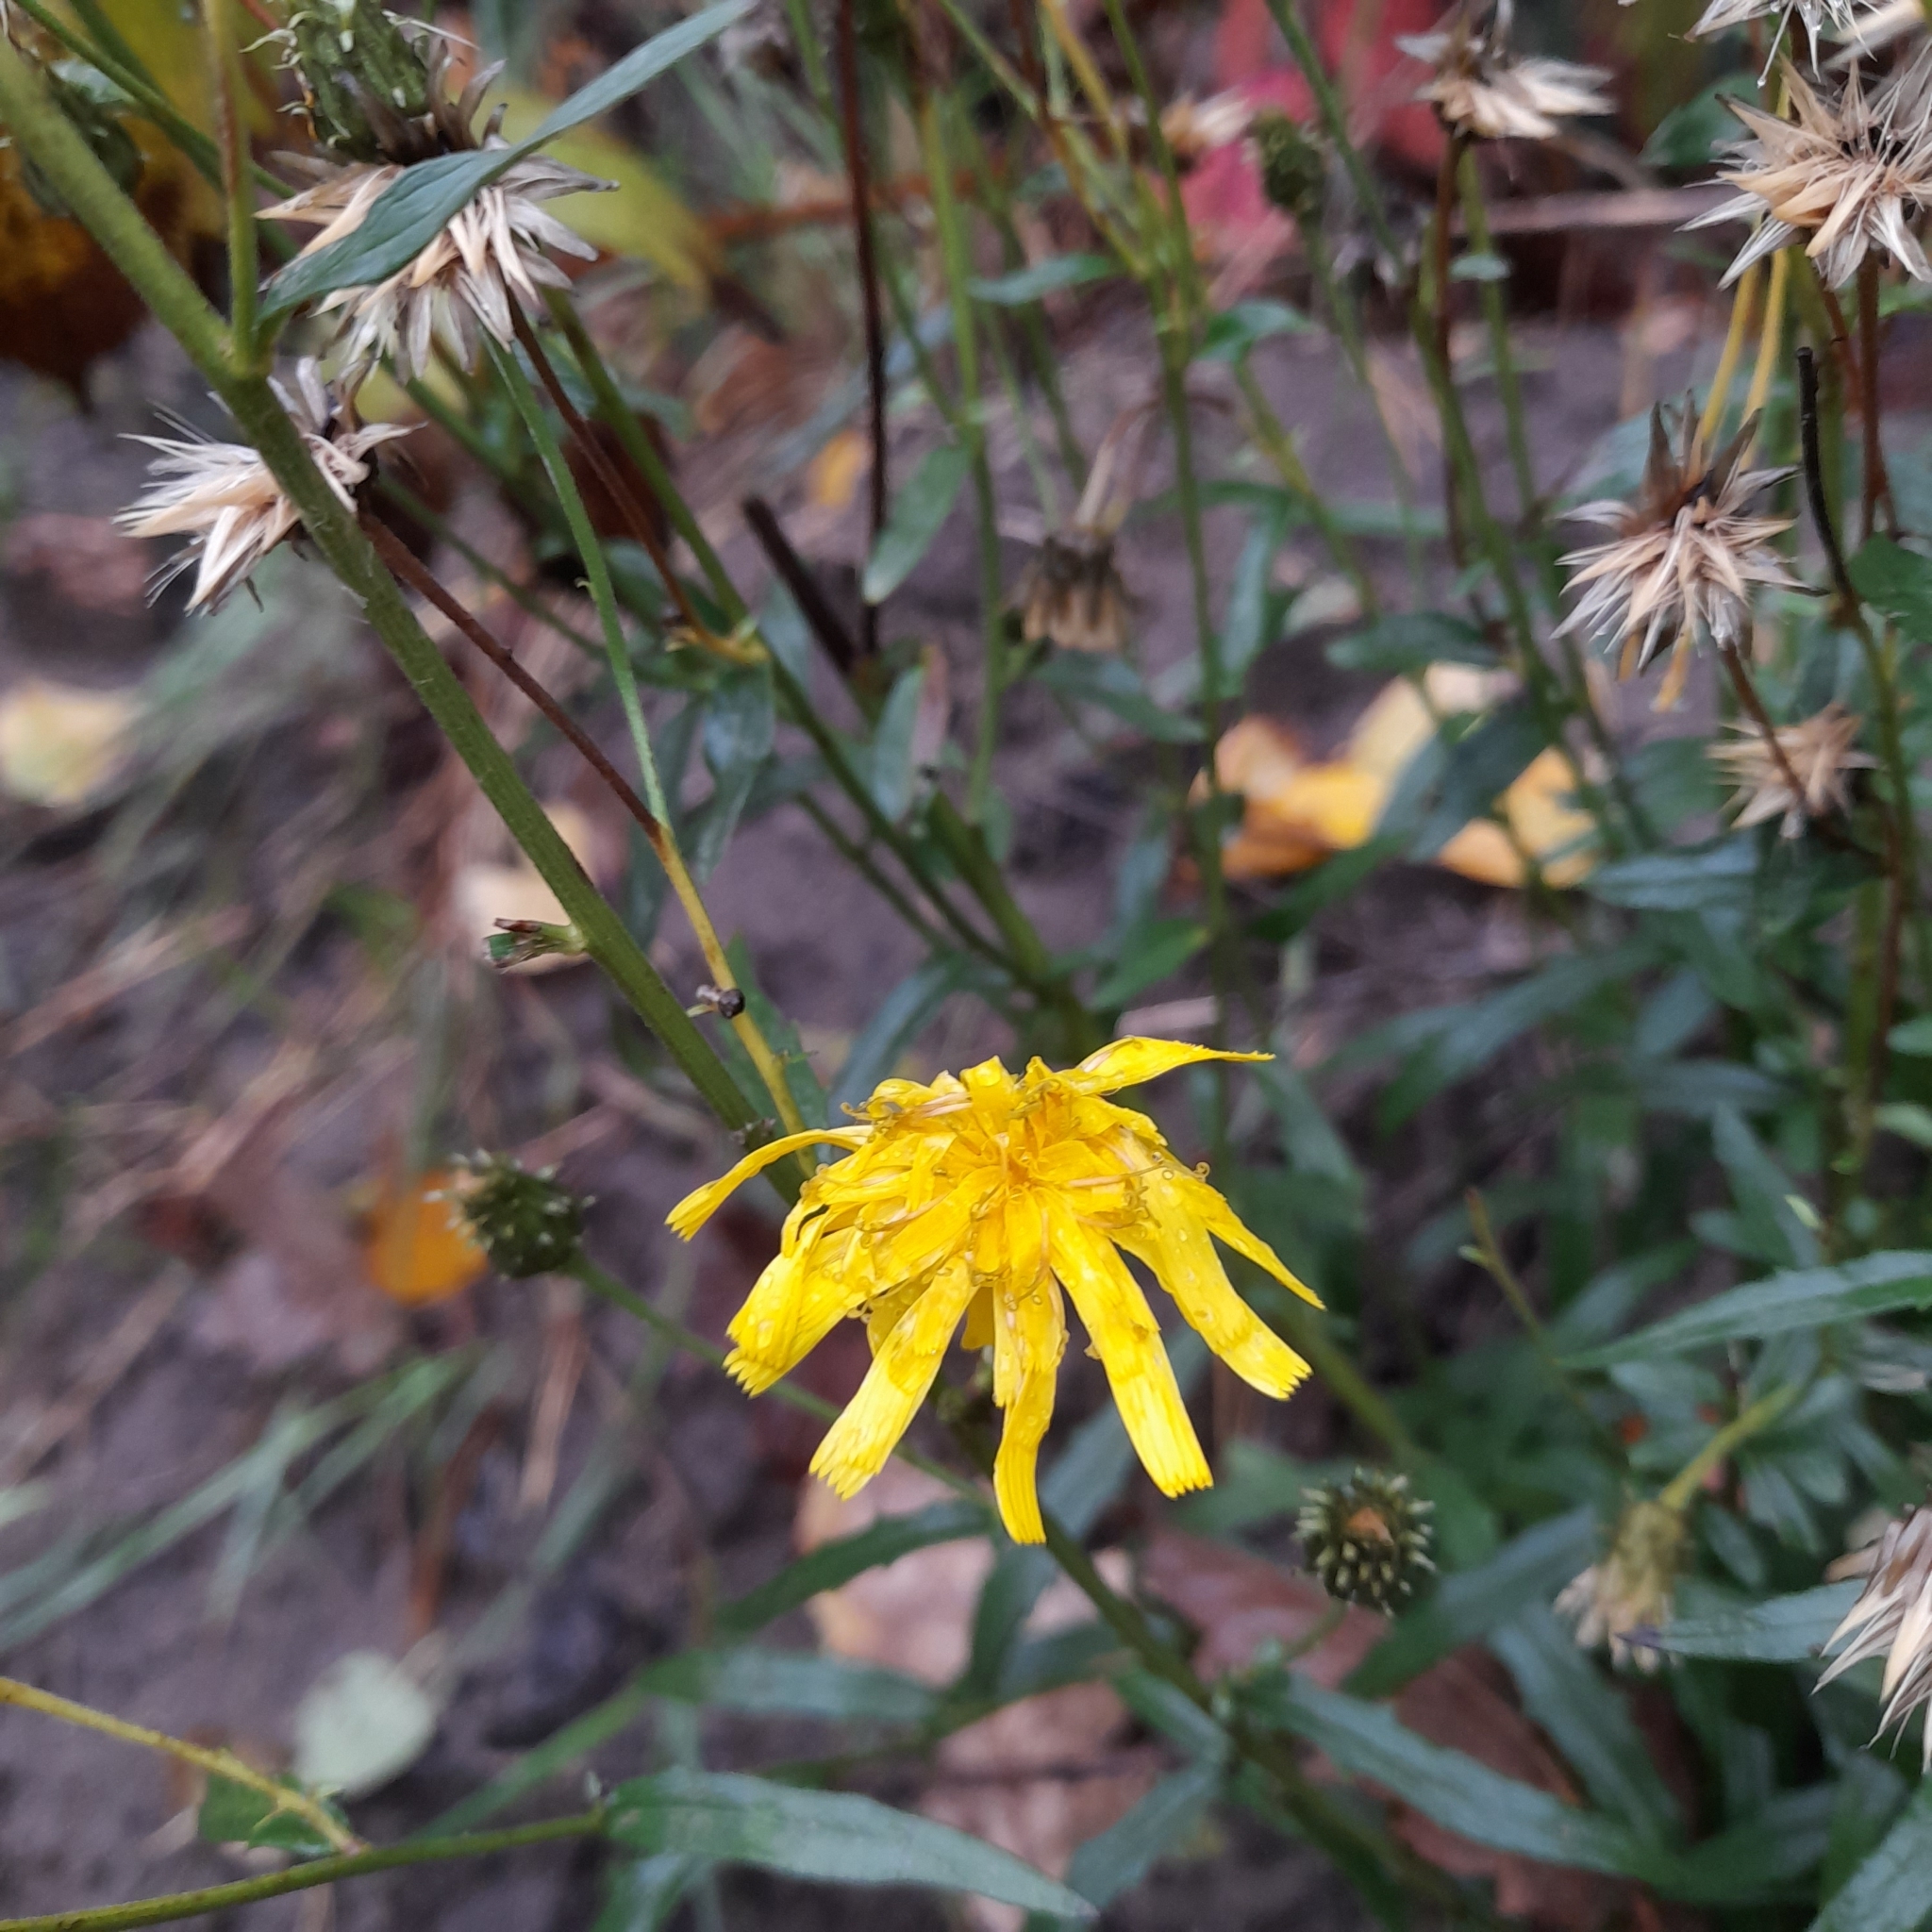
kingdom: Plantae
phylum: Tracheophyta
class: Magnoliopsida
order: Asterales
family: Asteraceae
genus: Hieracium
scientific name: Hieracium umbellatum
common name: Northern hawkweed
